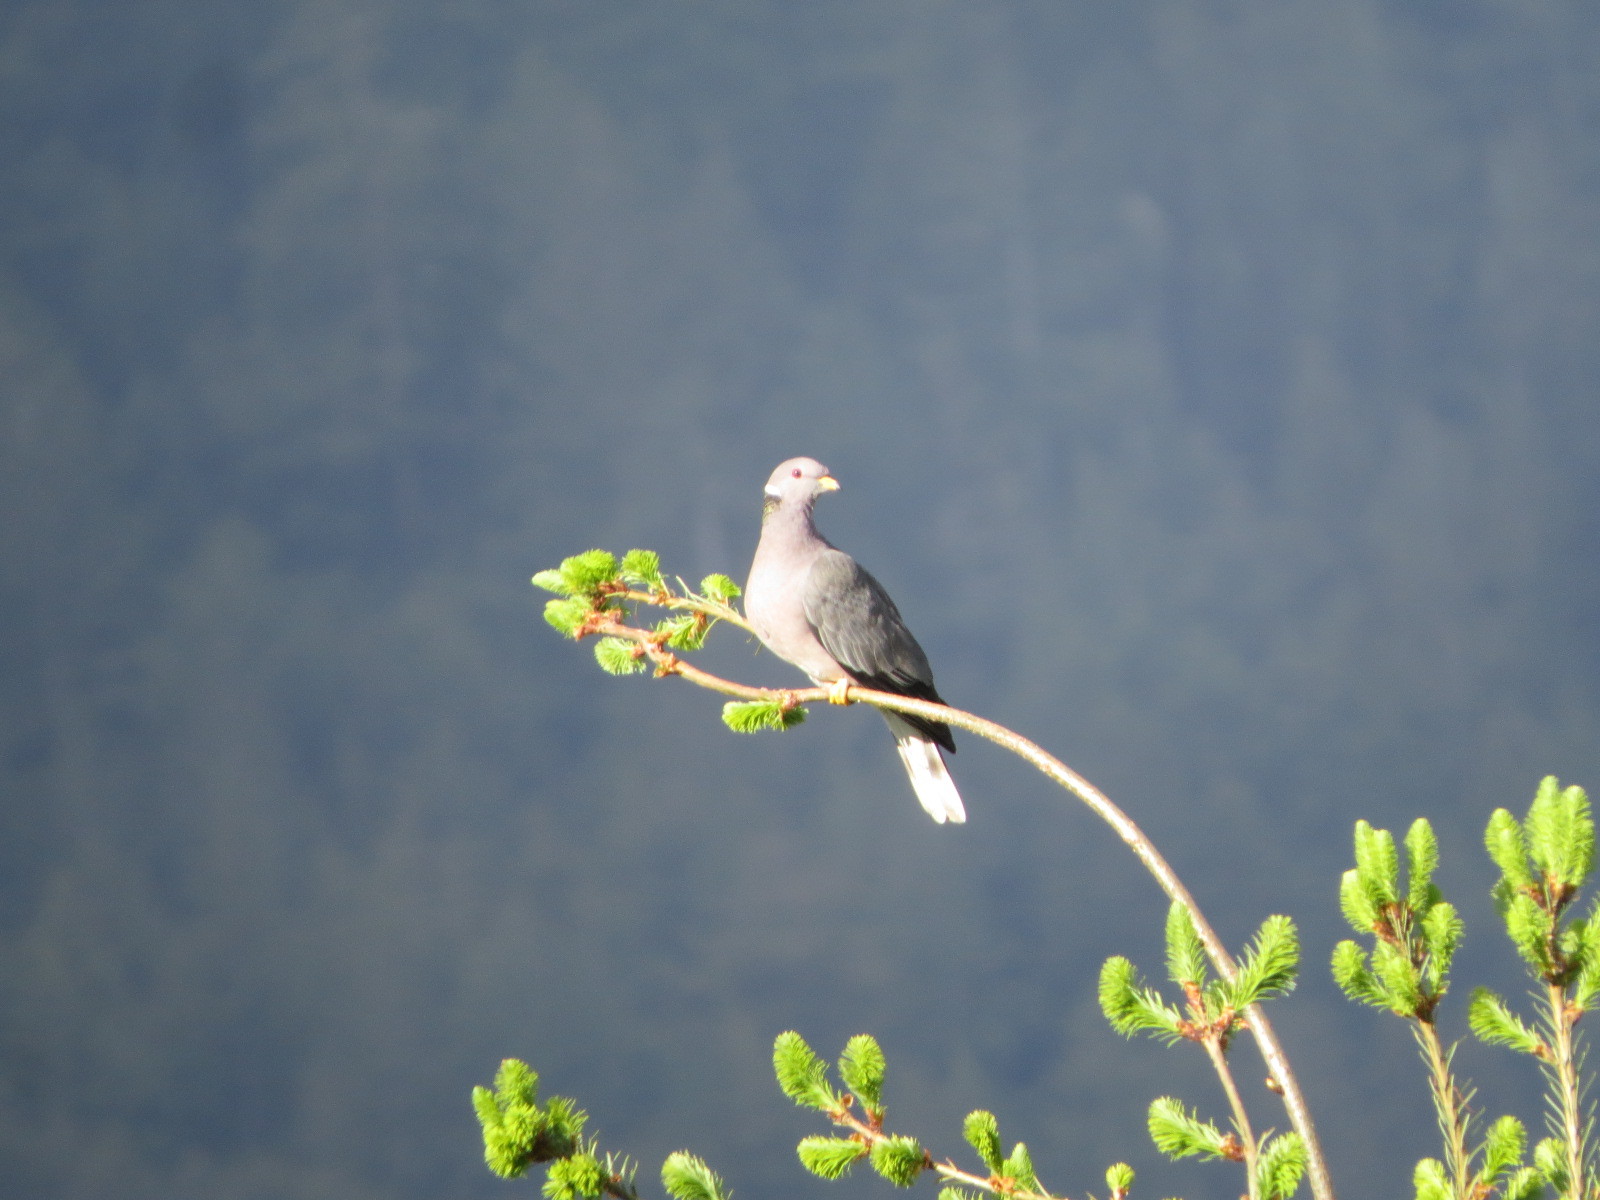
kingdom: Animalia
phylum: Chordata
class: Aves
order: Columbiformes
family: Columbidae
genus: Patagioenas
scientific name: Patagioenas fasciata
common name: Band-tailed pigeon
